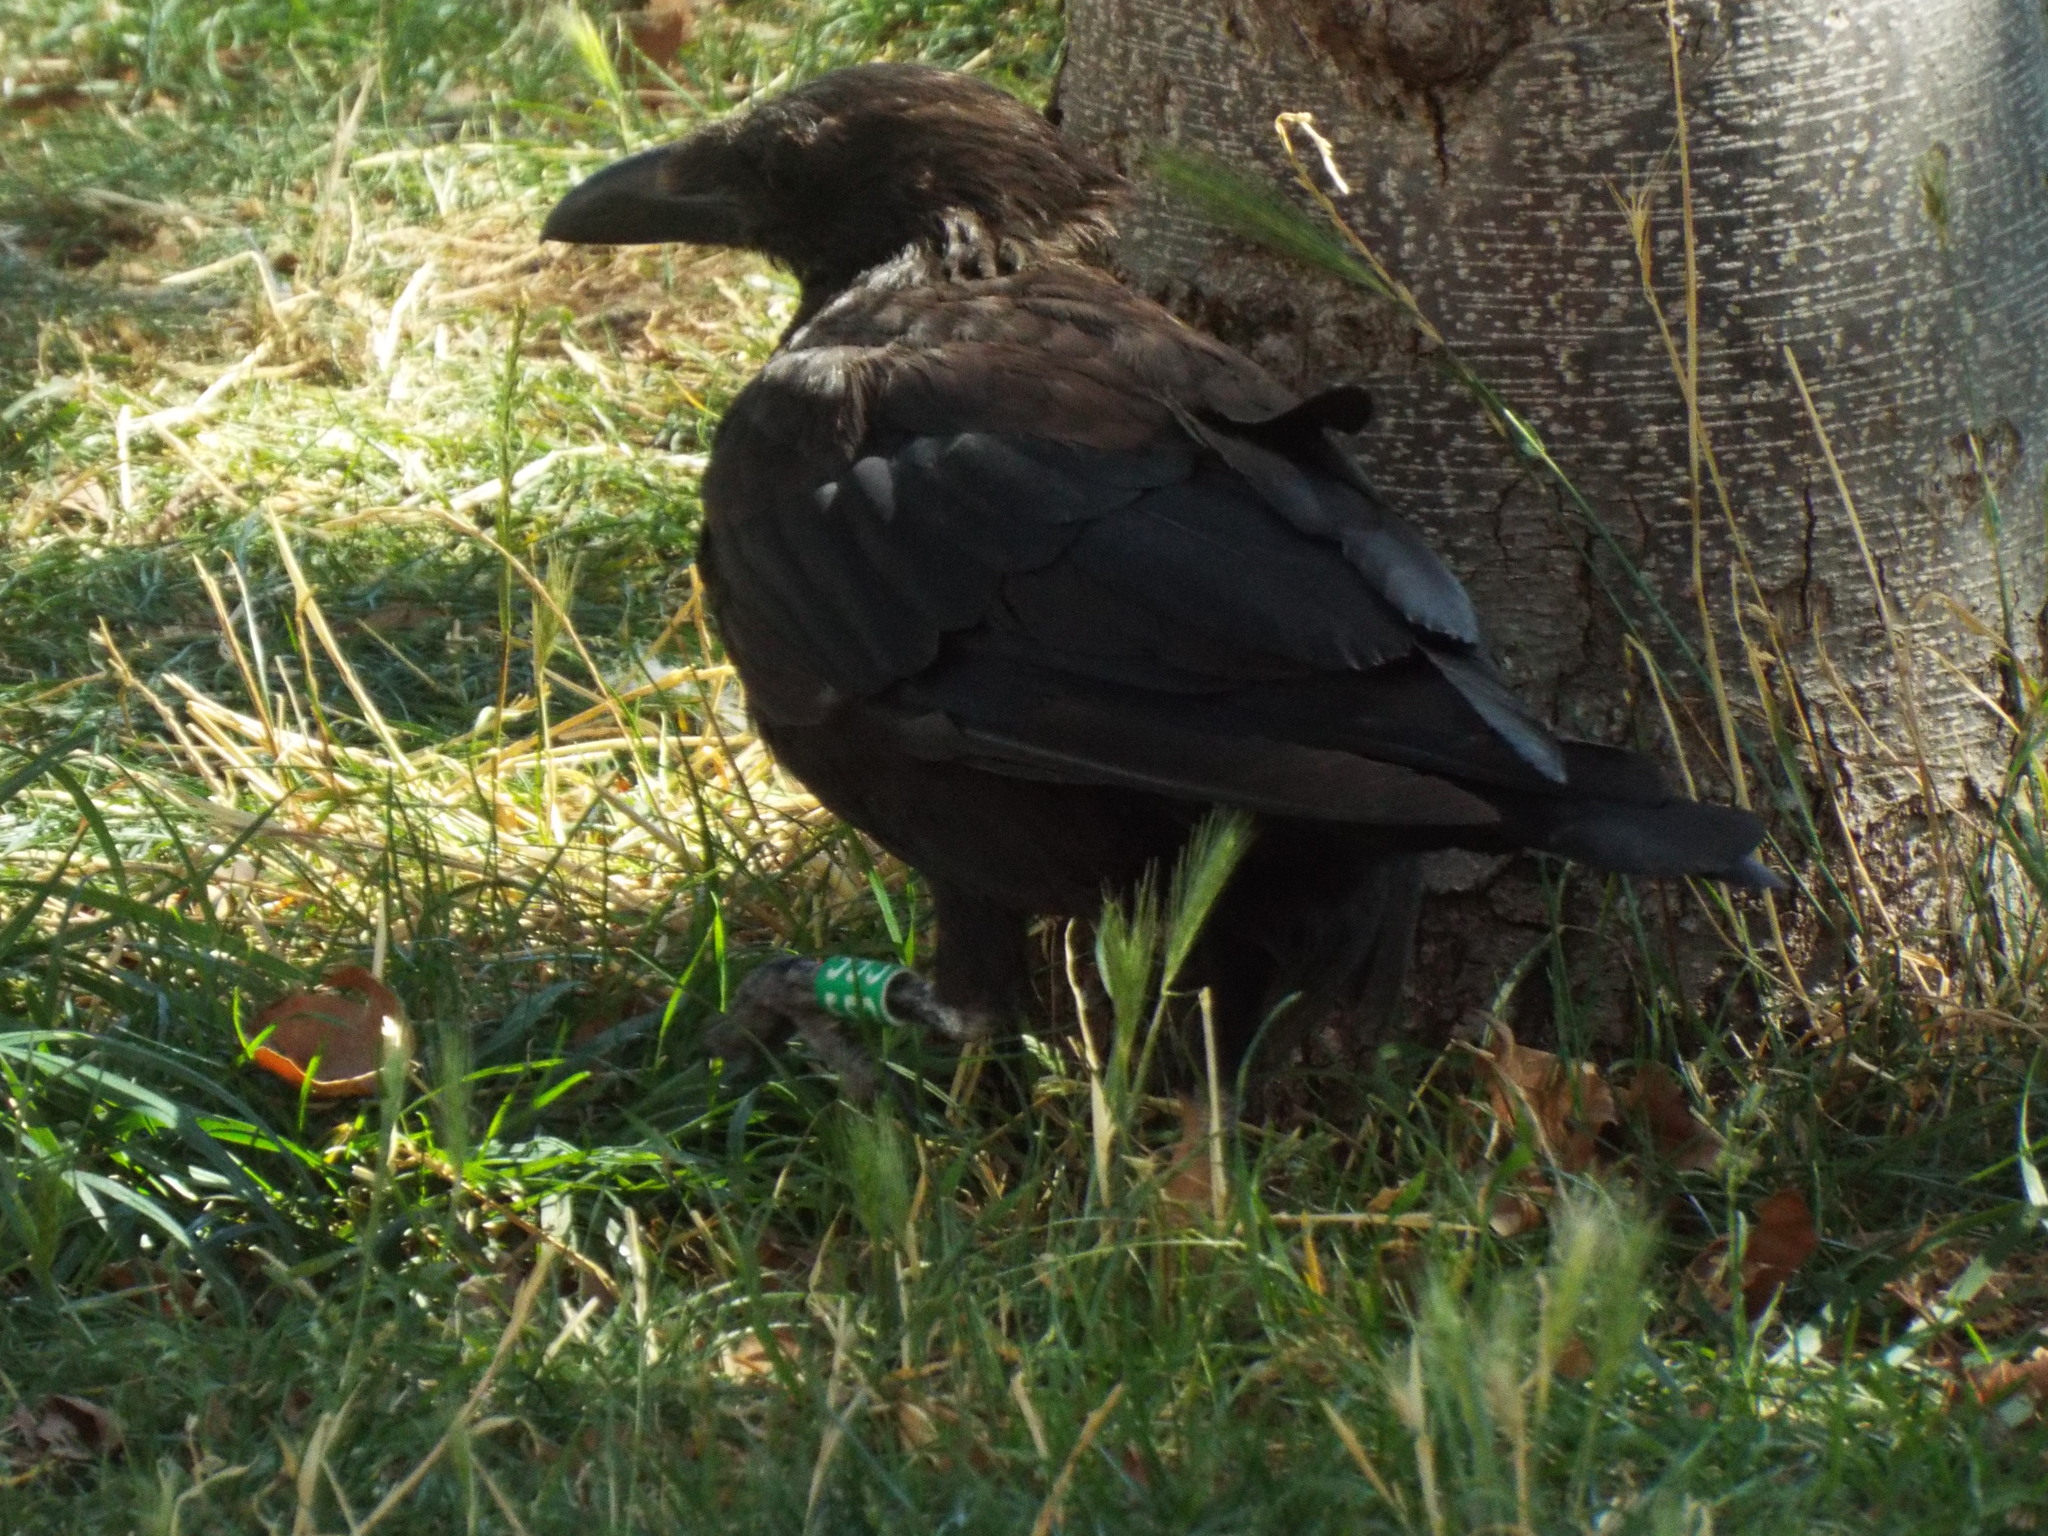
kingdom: Animalia
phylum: Chordata
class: Aves
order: Passeriformes
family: Corvidae
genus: Corvus
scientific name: Corvus corone
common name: Carrion crow
